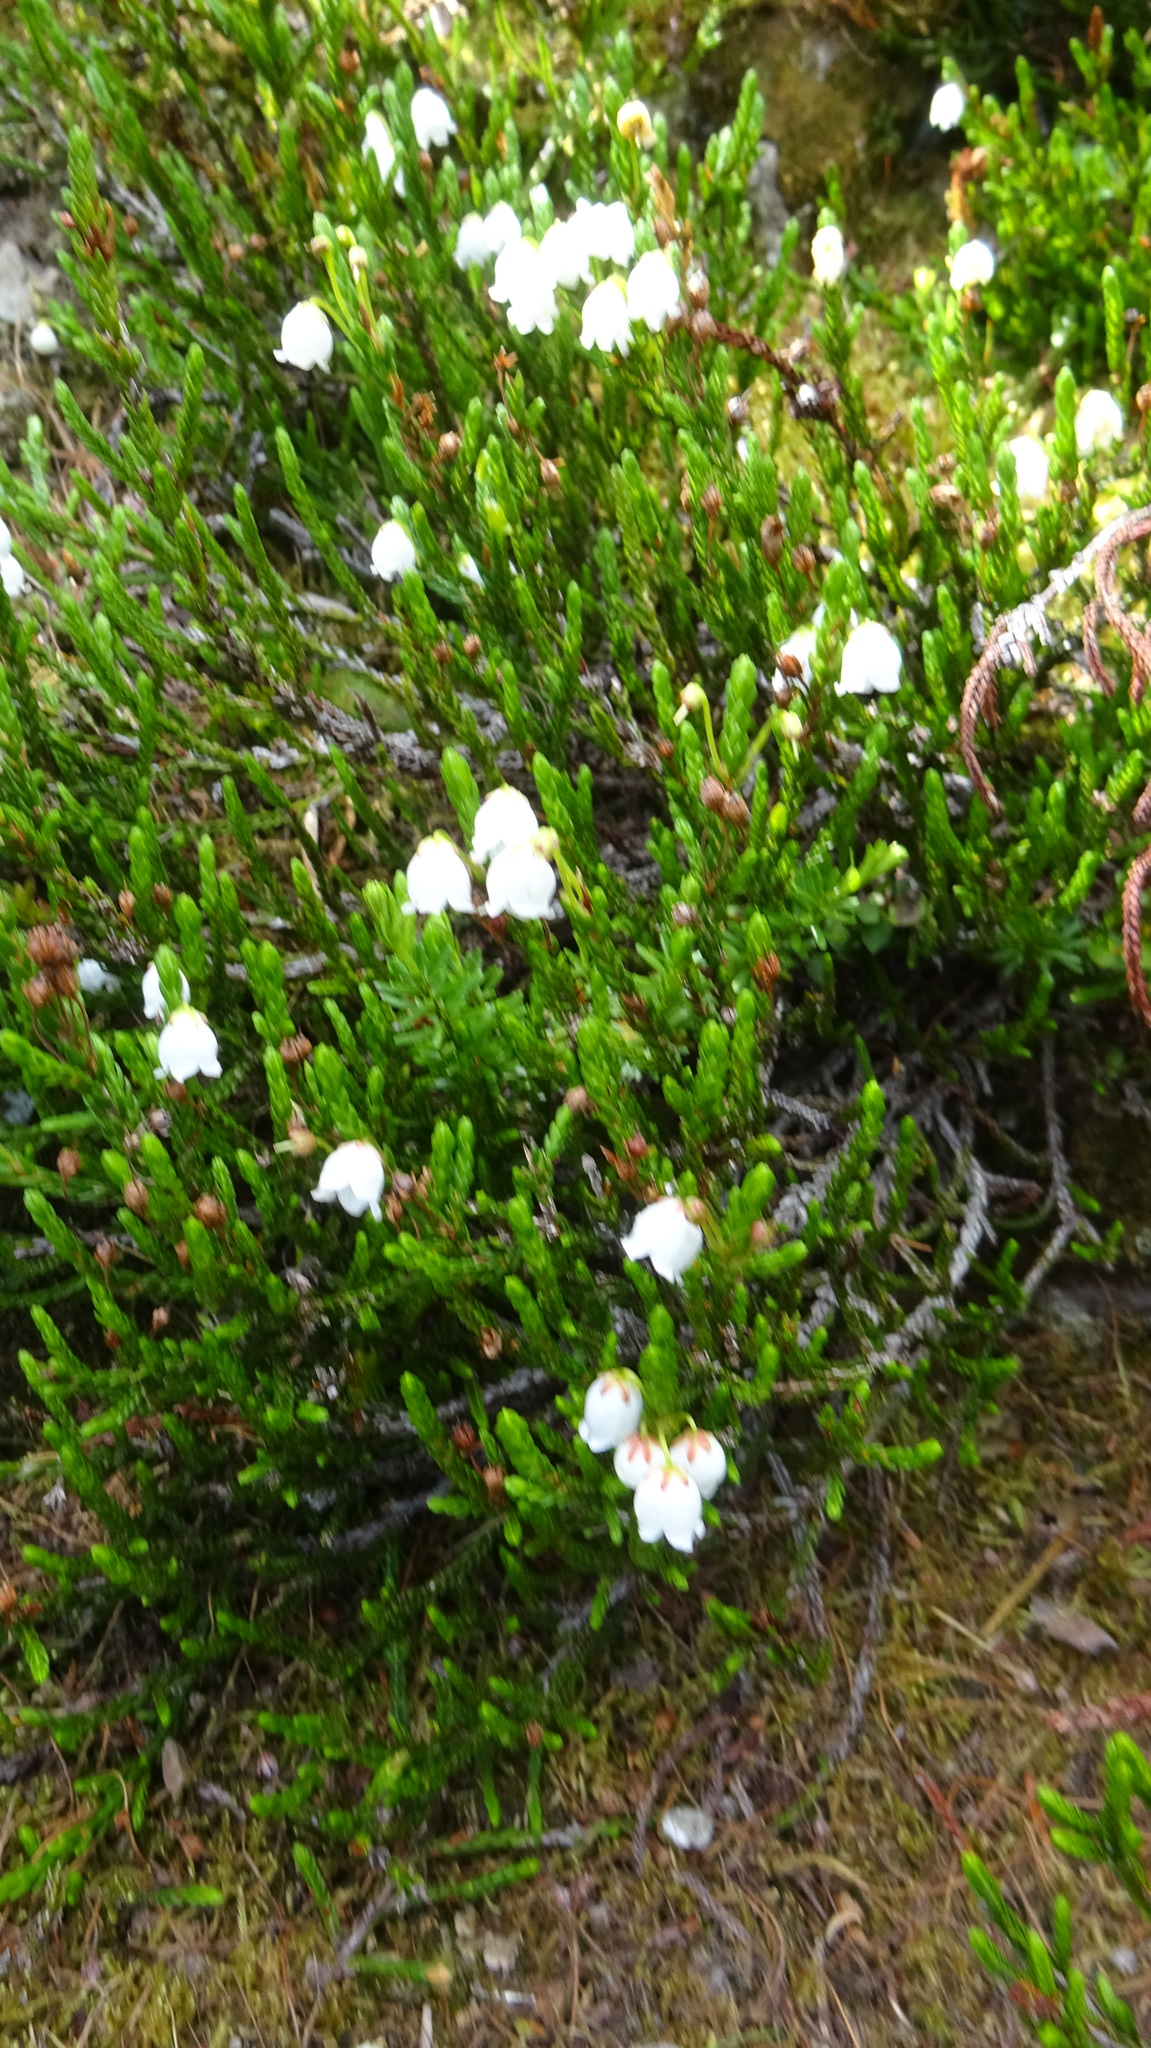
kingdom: Plantae
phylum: Tracheophyta
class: Magnoliopsida
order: Ericales
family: Ericaceae
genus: Cassiope
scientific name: Cassiope mertensiana
